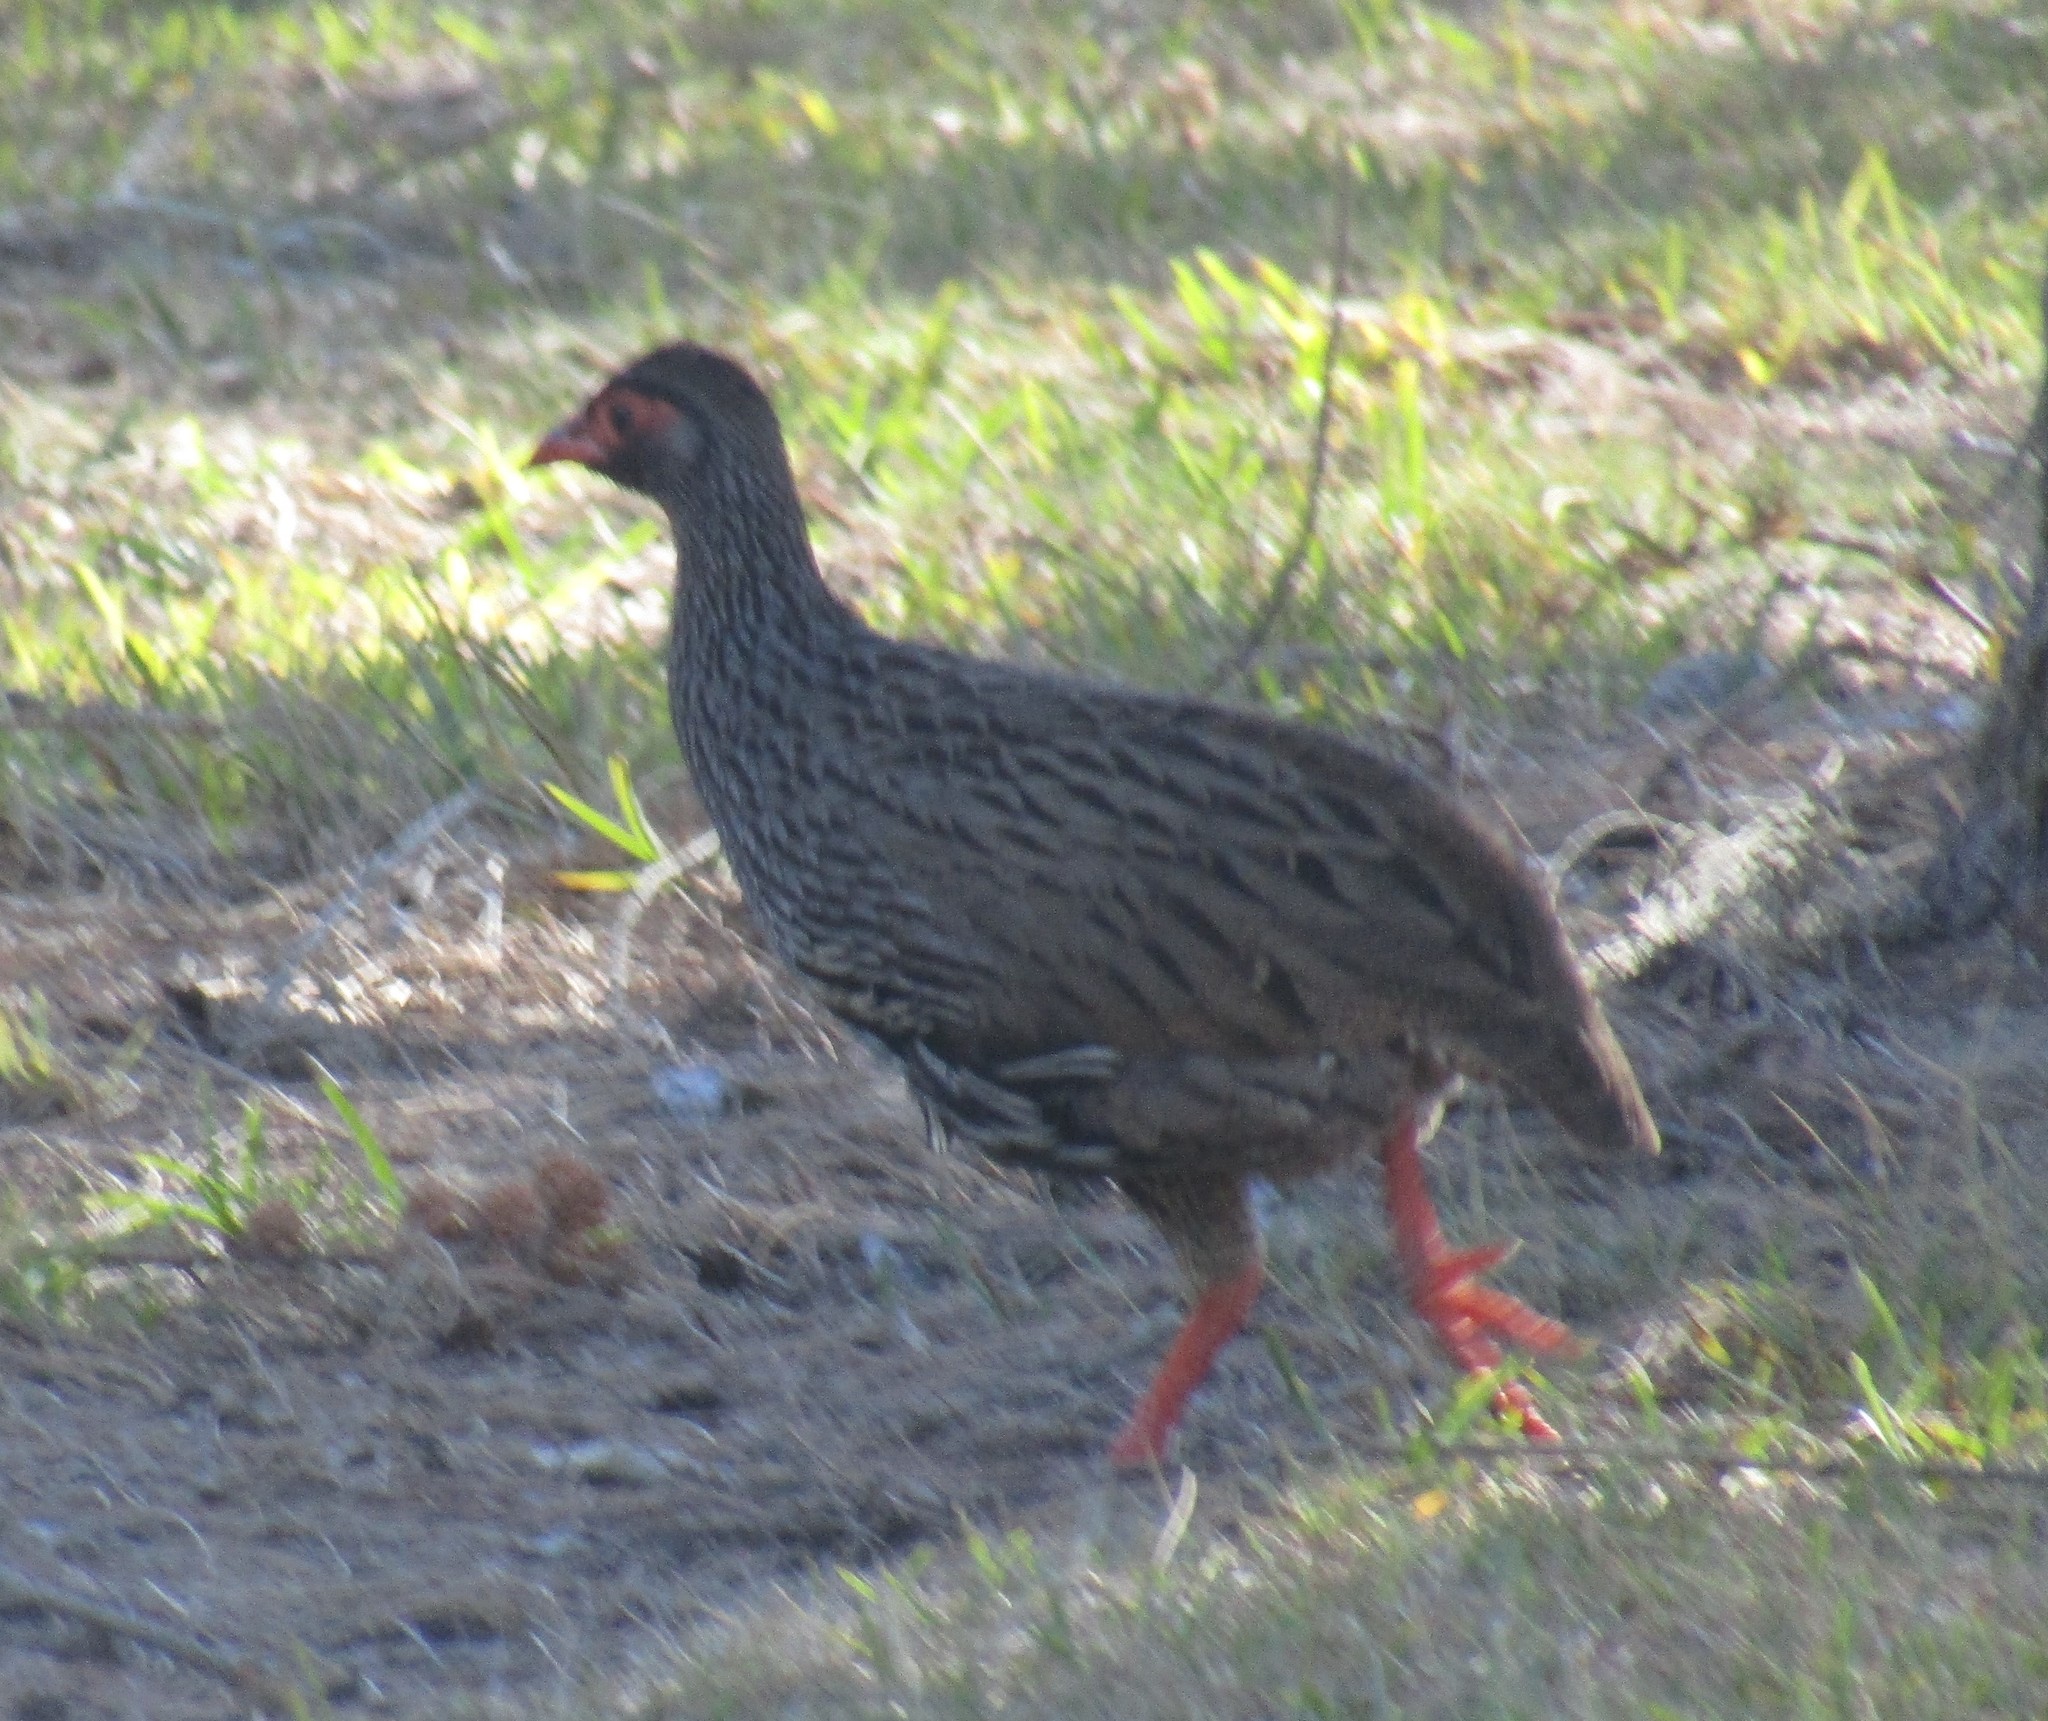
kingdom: Animalia
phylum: Chordata
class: Aves
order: Galliformes
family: Phasianidae
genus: Pternistis
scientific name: Pternistis afer
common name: Red-necked spurfowl
